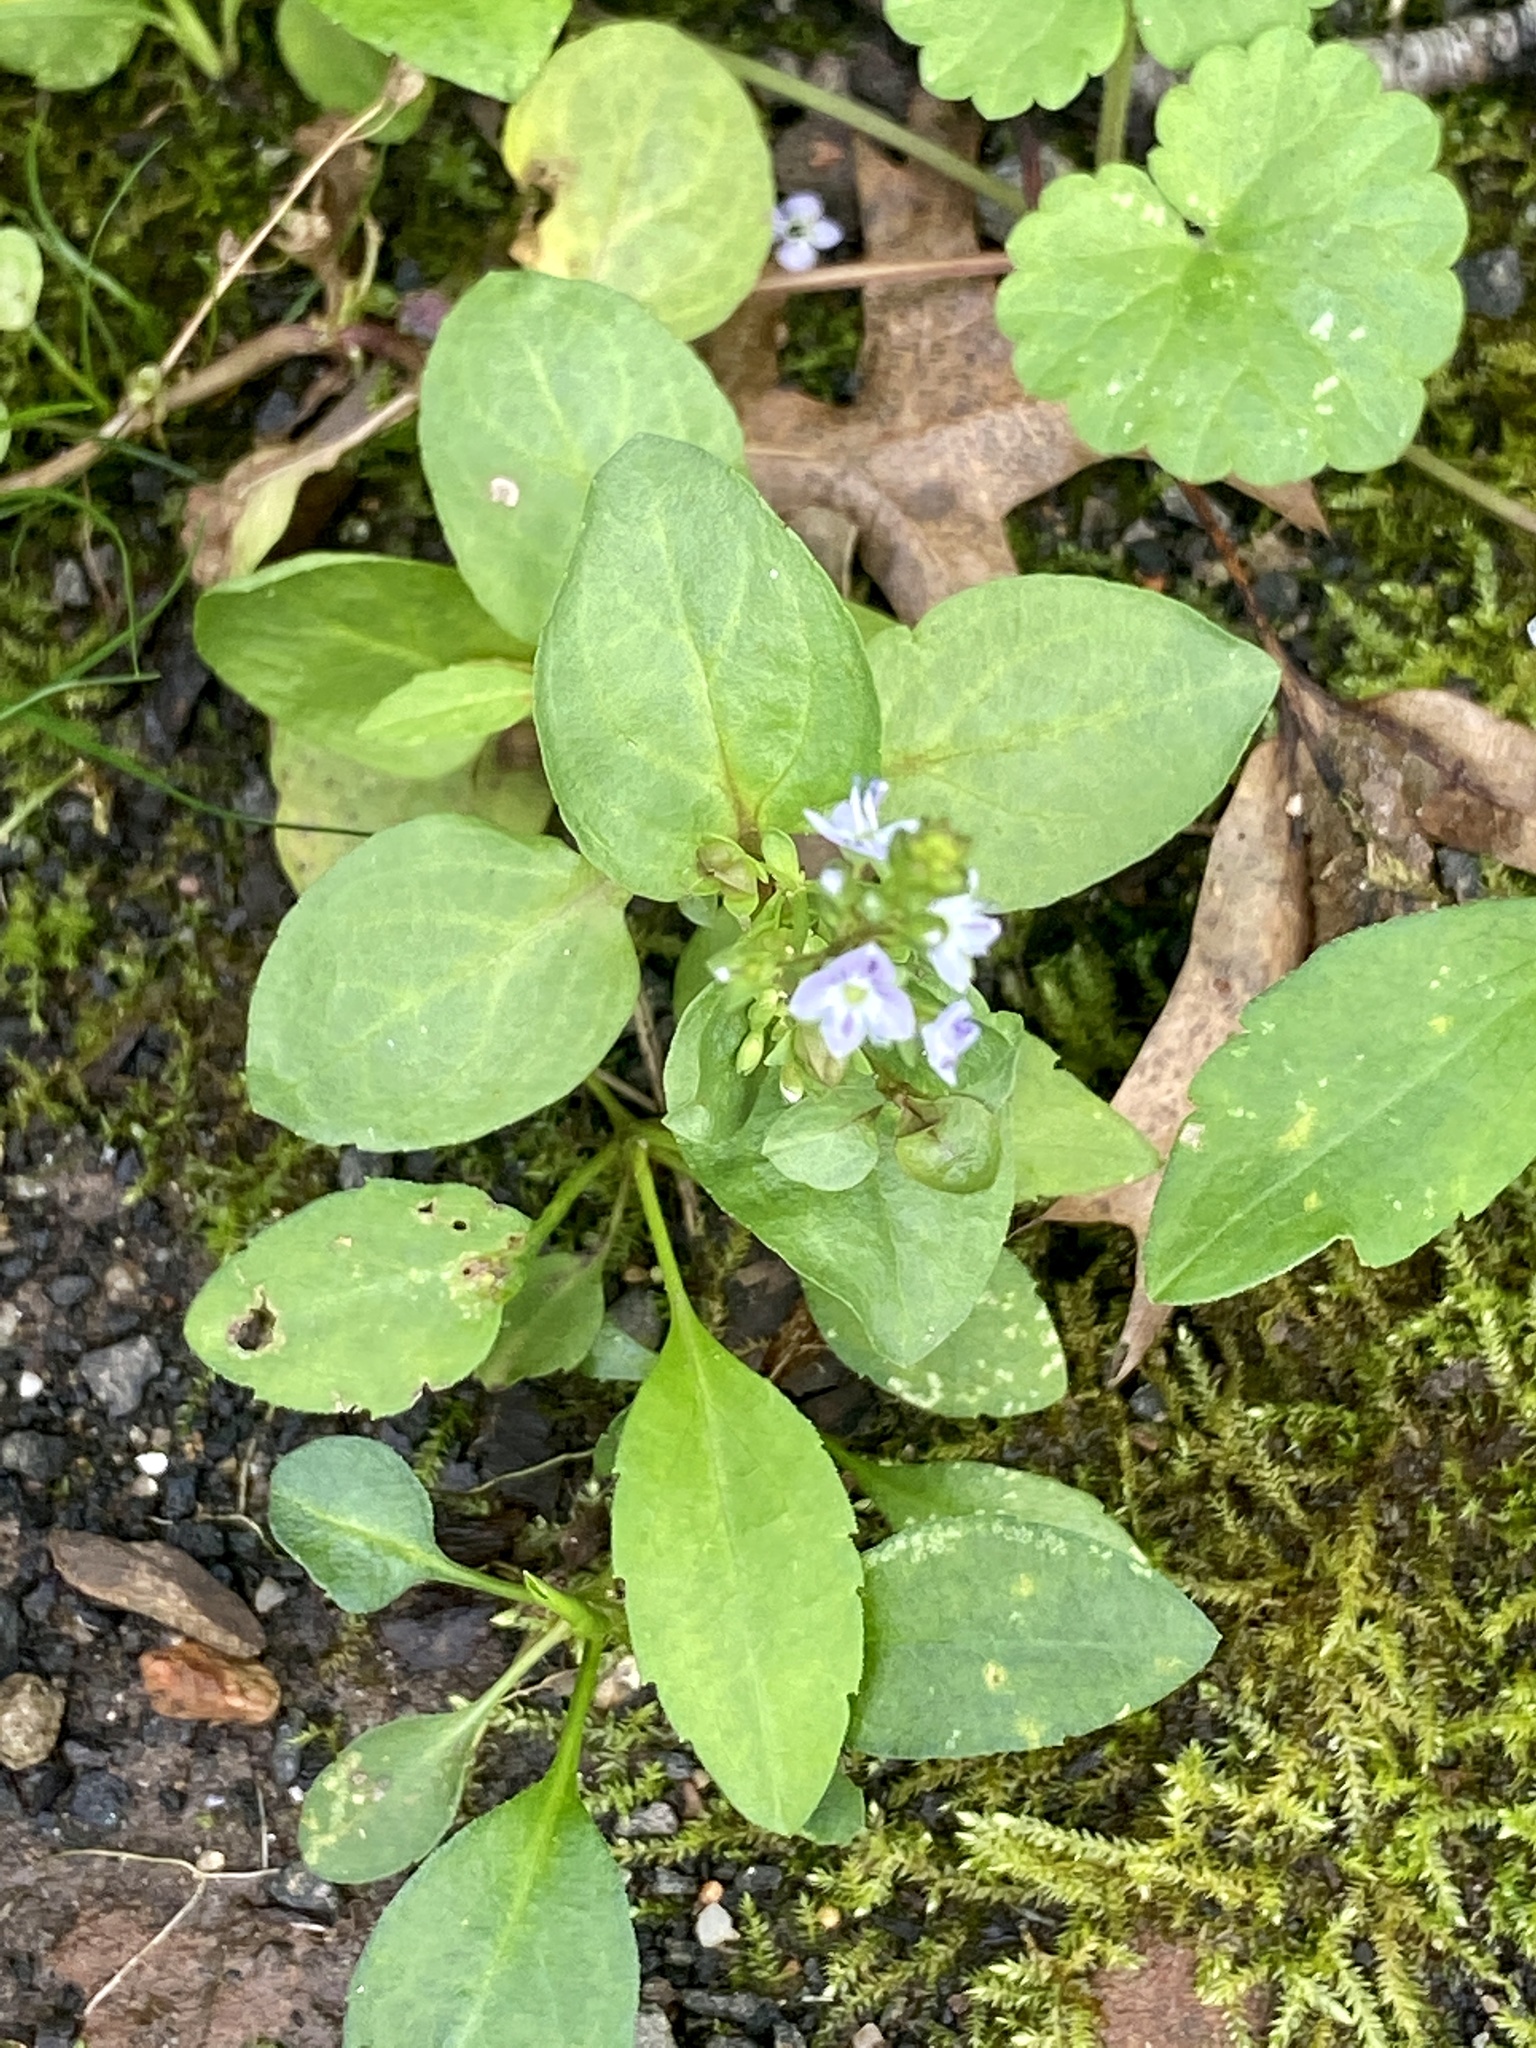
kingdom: Plantae
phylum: Tracheophyta
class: Magnoliopsida
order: Lamiales
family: Plantaginaceae
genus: Veronica
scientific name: Veronica americana
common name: American brooklime
